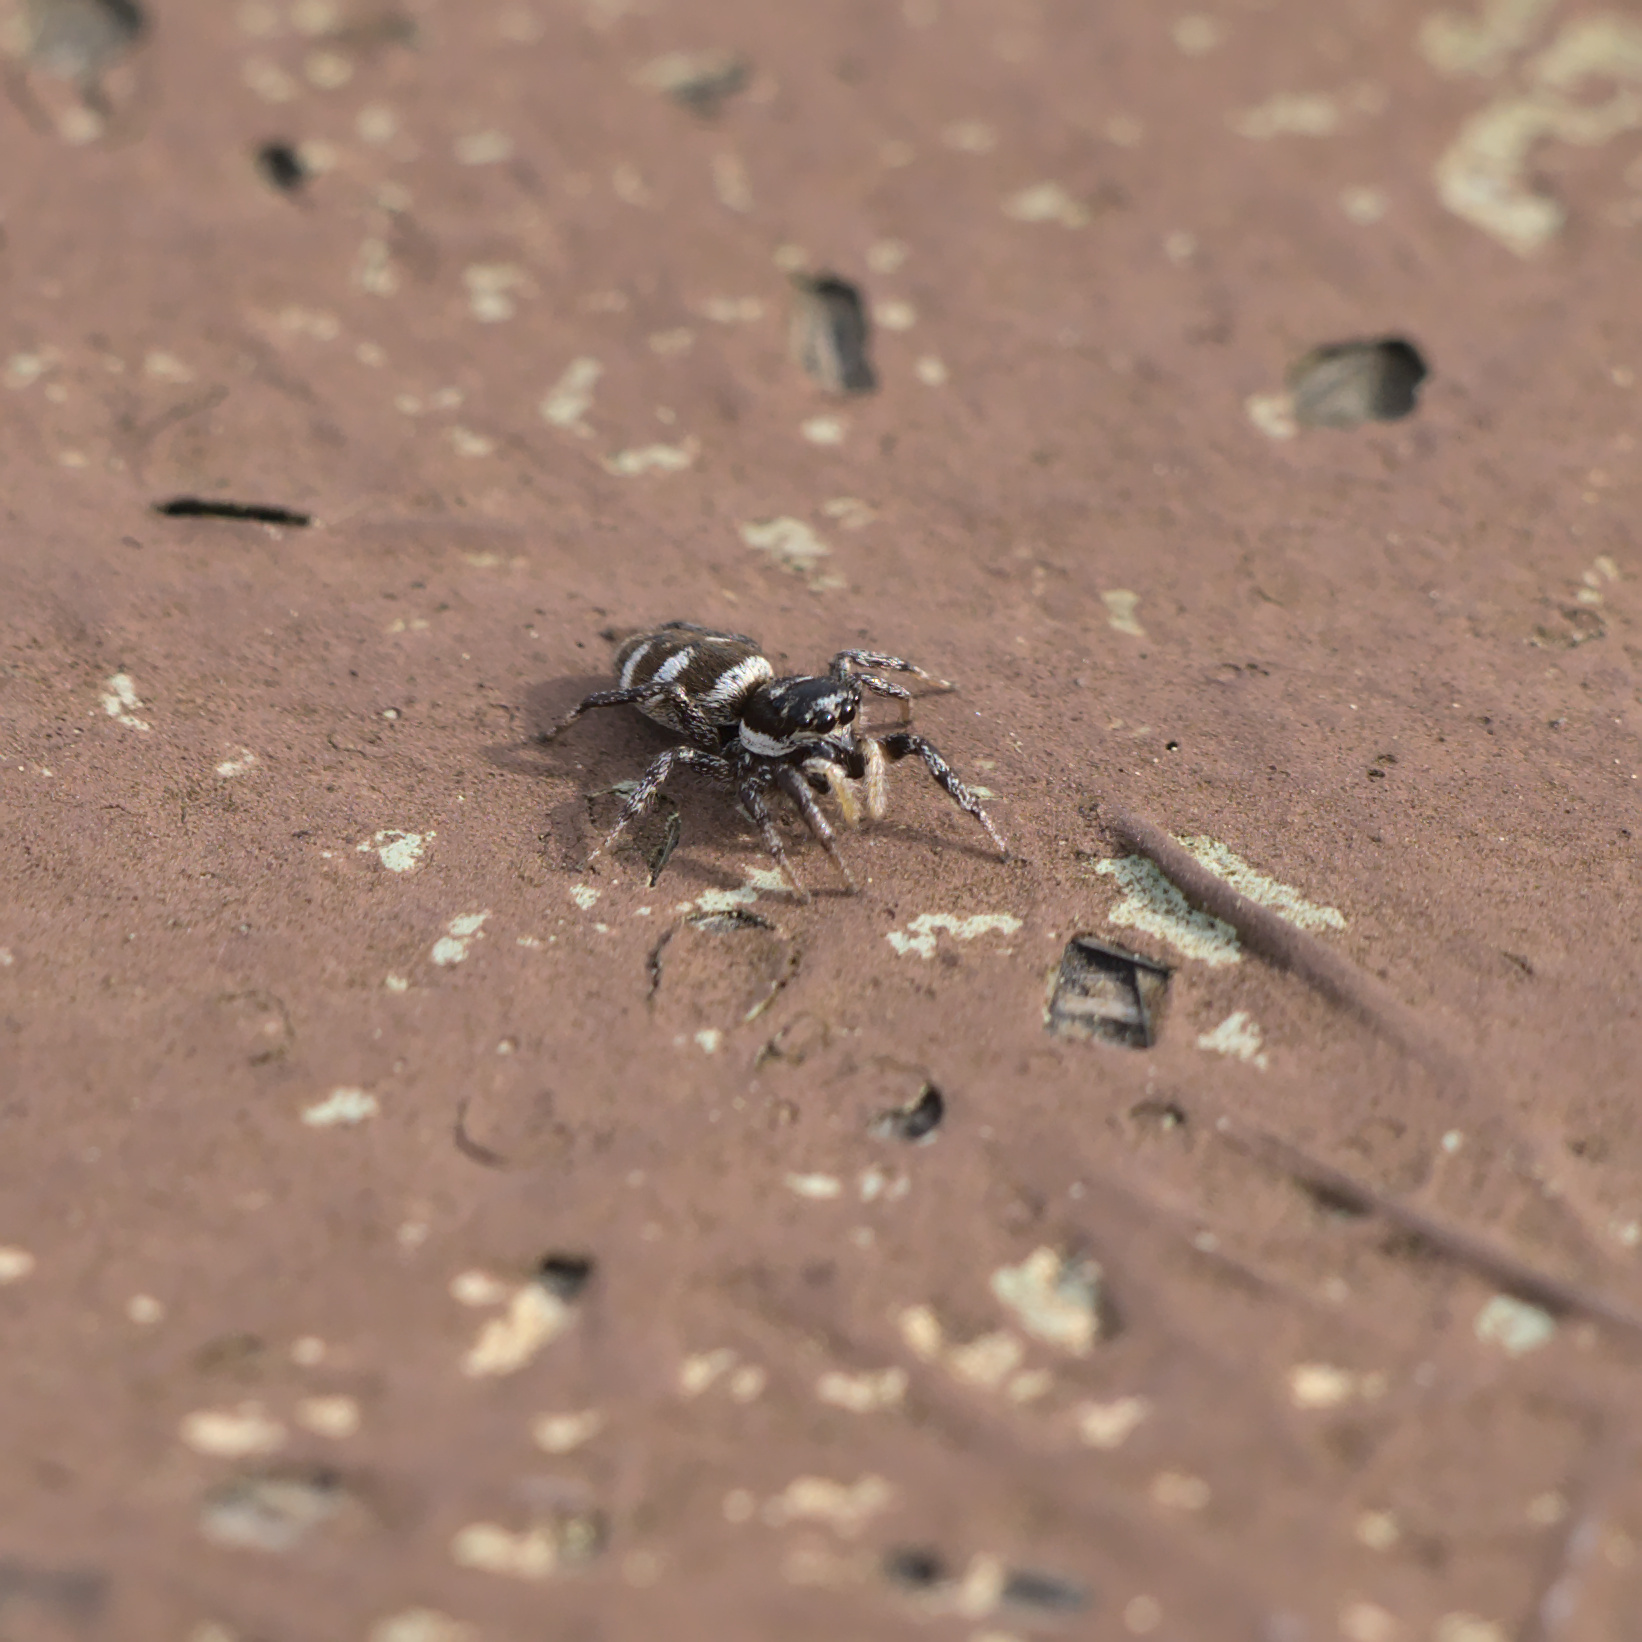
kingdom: Animalia
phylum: Arthropoda
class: Arachnida
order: Araneae
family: Salticidae
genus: Salticus
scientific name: Salticus scenicus
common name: Zebra jumper
